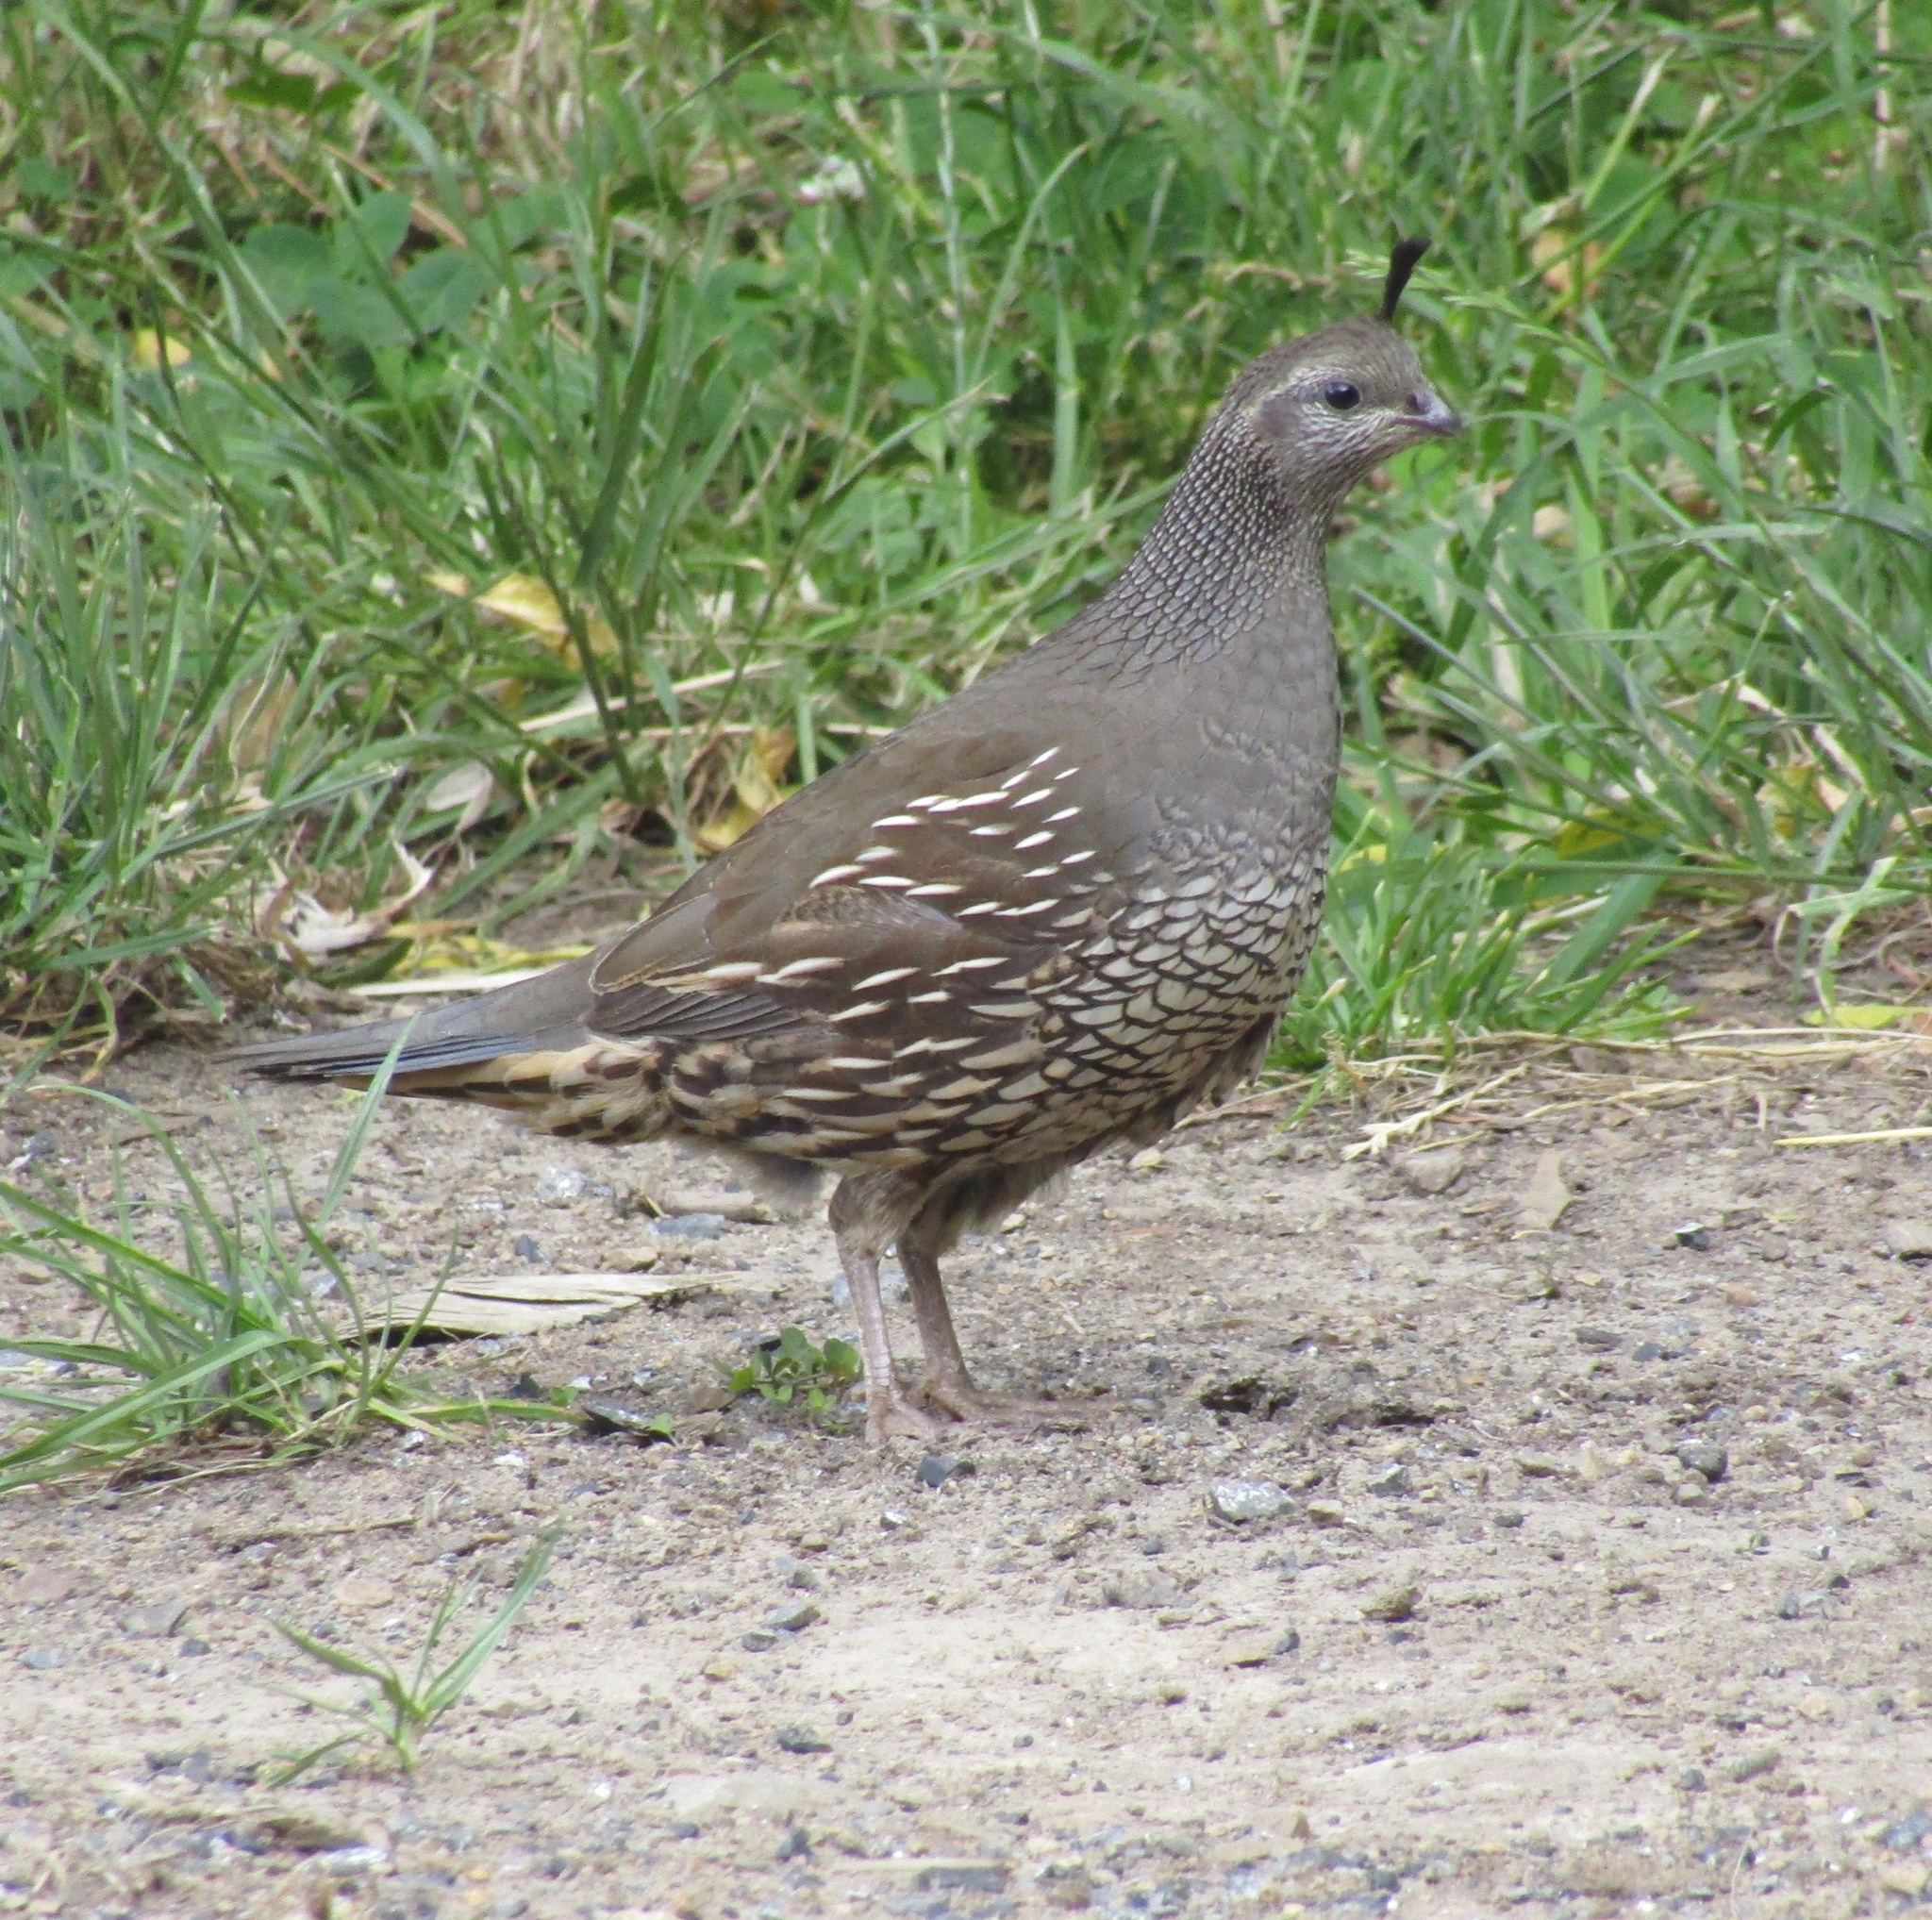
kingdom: Animalia
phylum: Chordata
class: Aves
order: Galliformes
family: Odontophoridae
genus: Callipepla
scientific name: Callipepla californica
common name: California quail
